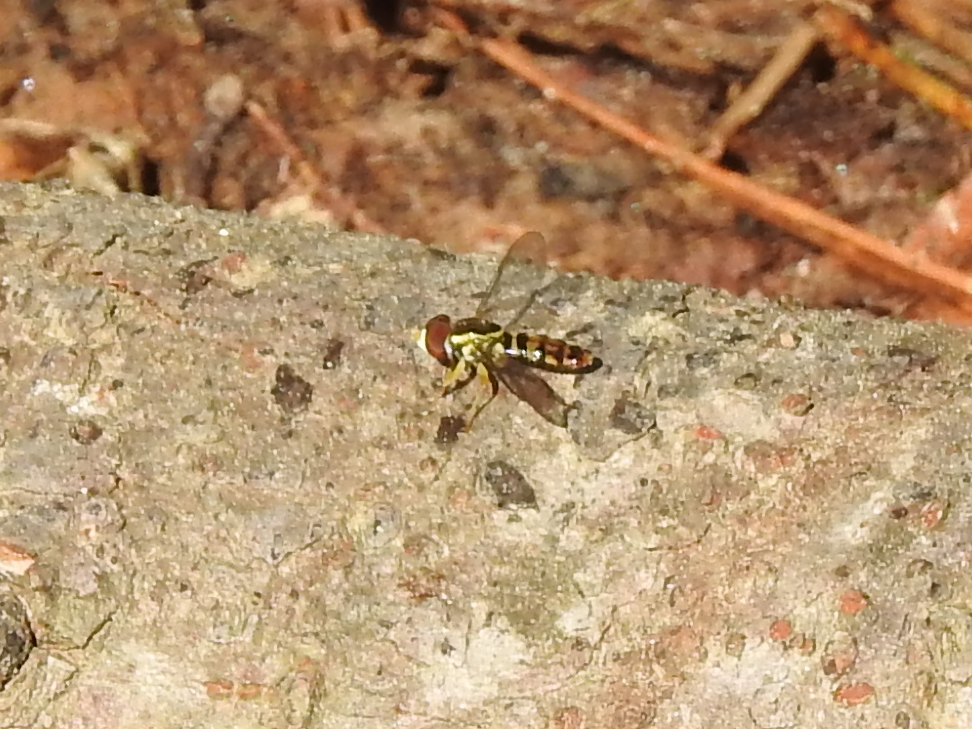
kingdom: Animalia
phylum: Arthropoda
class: Insecta
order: Diptera
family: Syrphidae
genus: Toxomerus
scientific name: Toxomerus geminatus
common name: Eastern calligrapher
